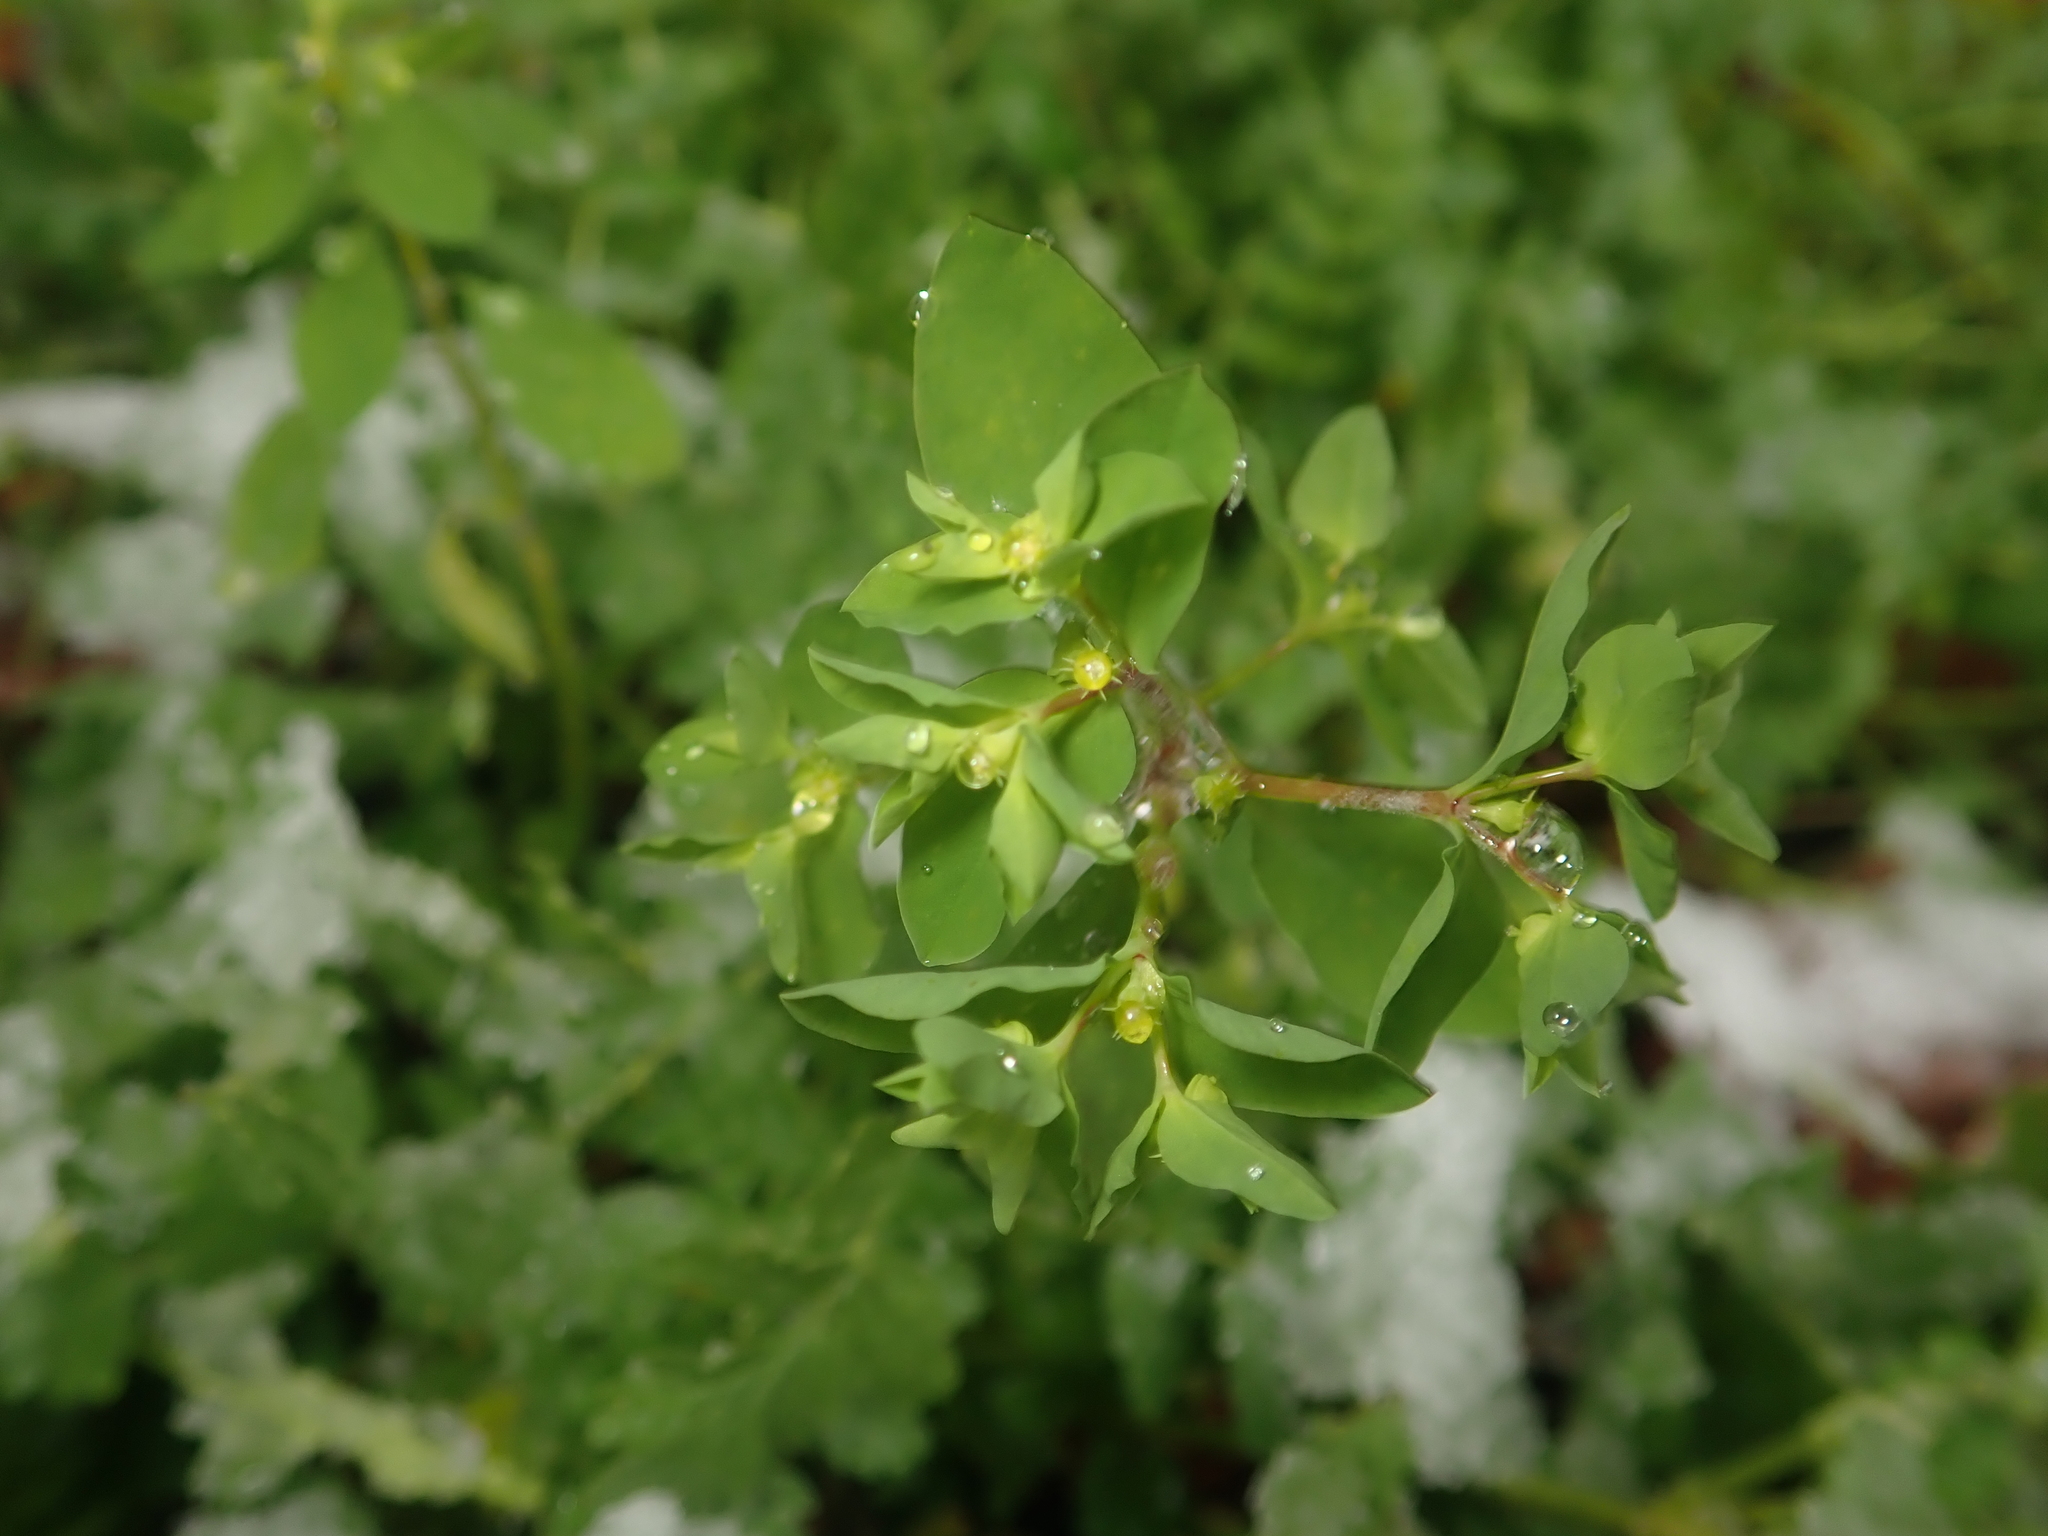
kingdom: Plantae
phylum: Tracheophyta
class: Magnoliopsida
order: Malpighiales
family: Euphorbiaceae
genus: Euphorbia
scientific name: Euphorbia peplus
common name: Petty spurge
